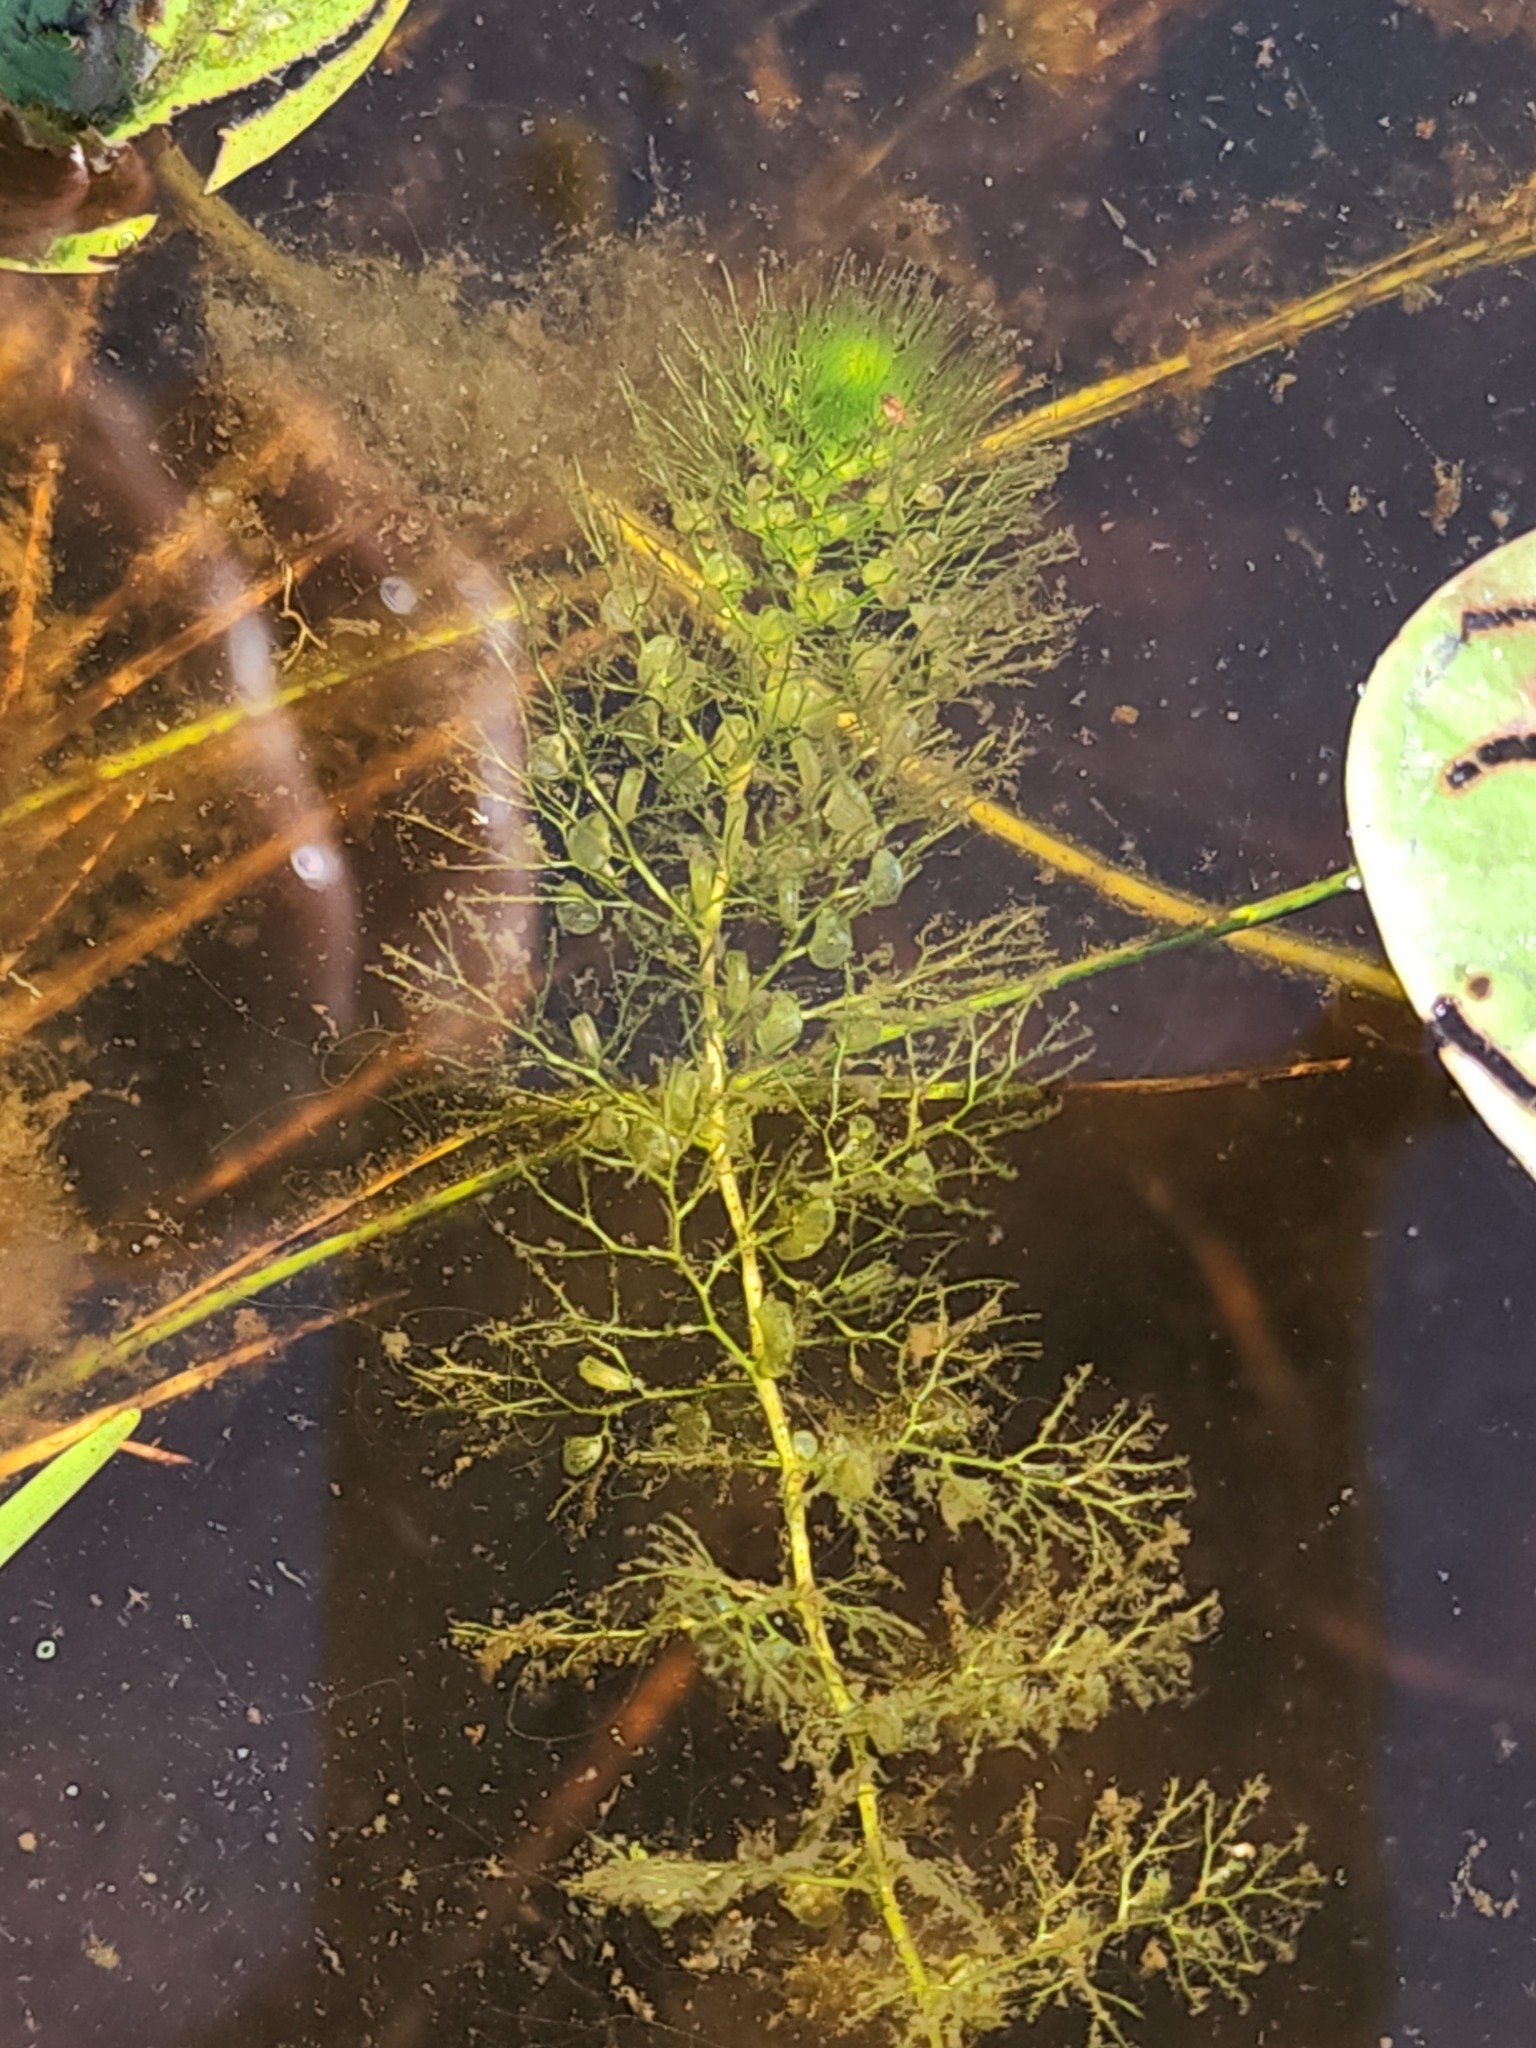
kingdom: Plantae
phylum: Tracheophyta
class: Magnoliopsida
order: Lamiales
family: Lentibulariaceae
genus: Utricularia
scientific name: Utricularia macrorhiza
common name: Common bladderwort
